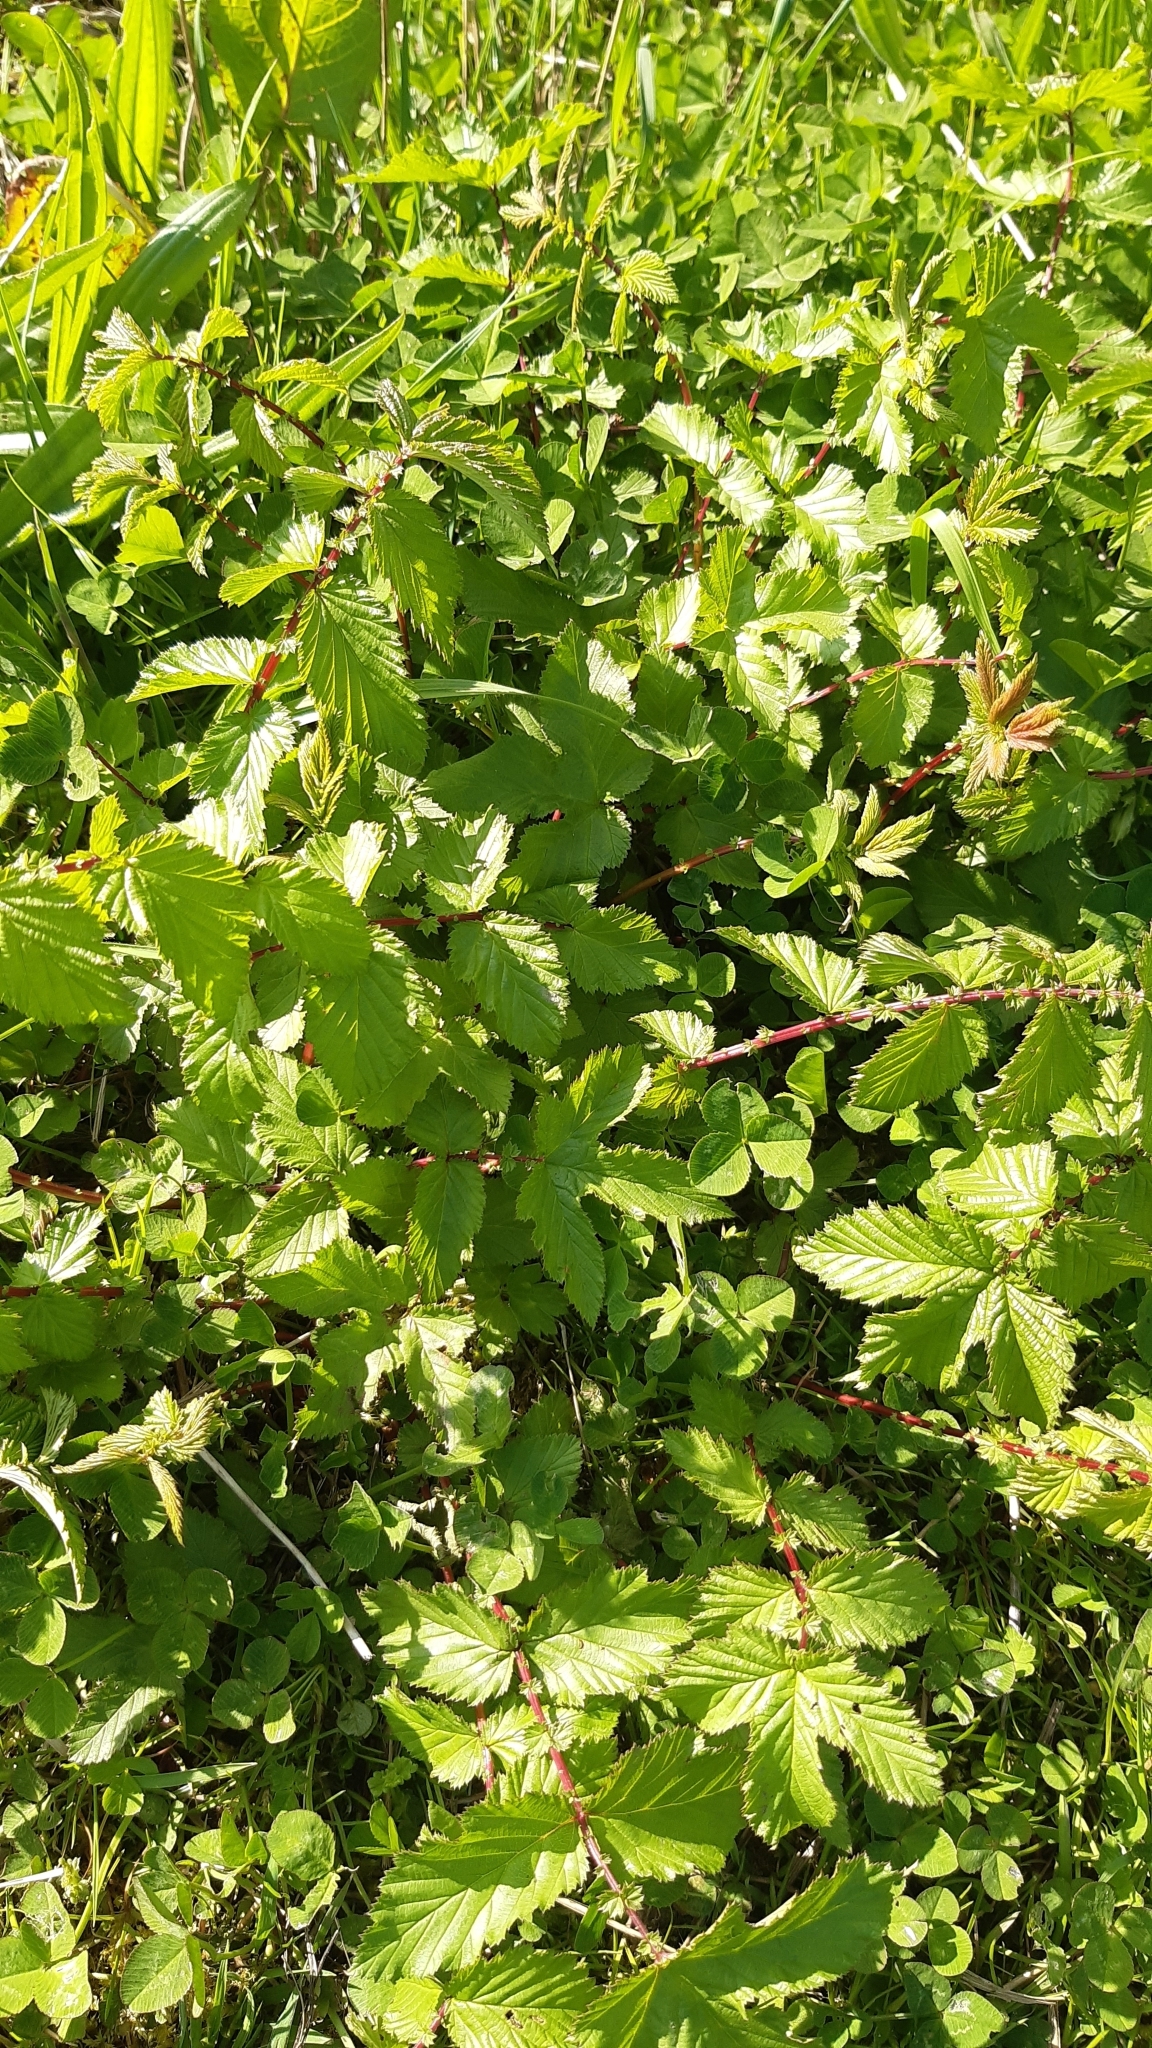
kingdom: Plantae
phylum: Tracheophyta
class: Magnoliopsida
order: Rosales
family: Rosaceae
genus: Filipendula
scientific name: Filipendula ulmaria
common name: Meadowsweet
